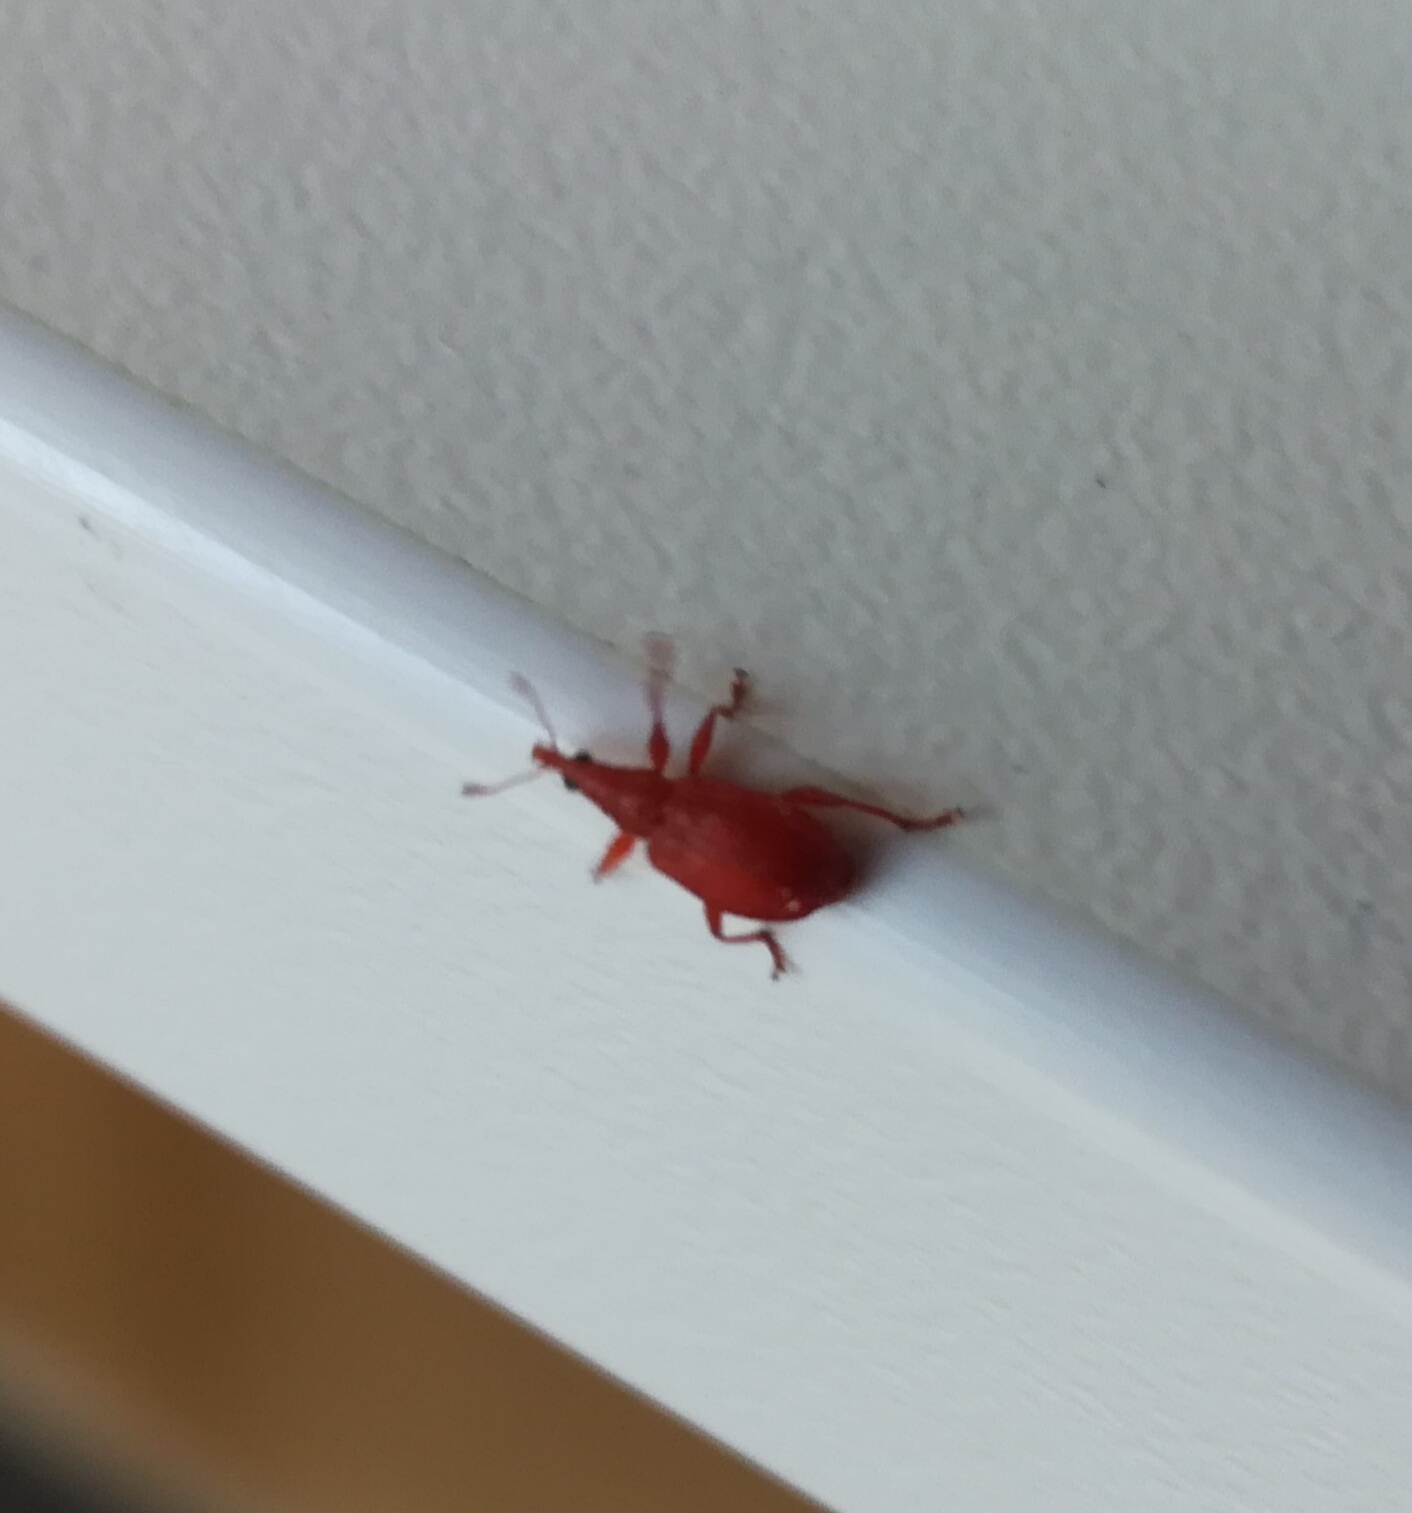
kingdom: Animalia
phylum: Arthropoda
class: Insecta
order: Coleoptera
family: Apionidae
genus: Apion
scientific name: Apion frumentarium
